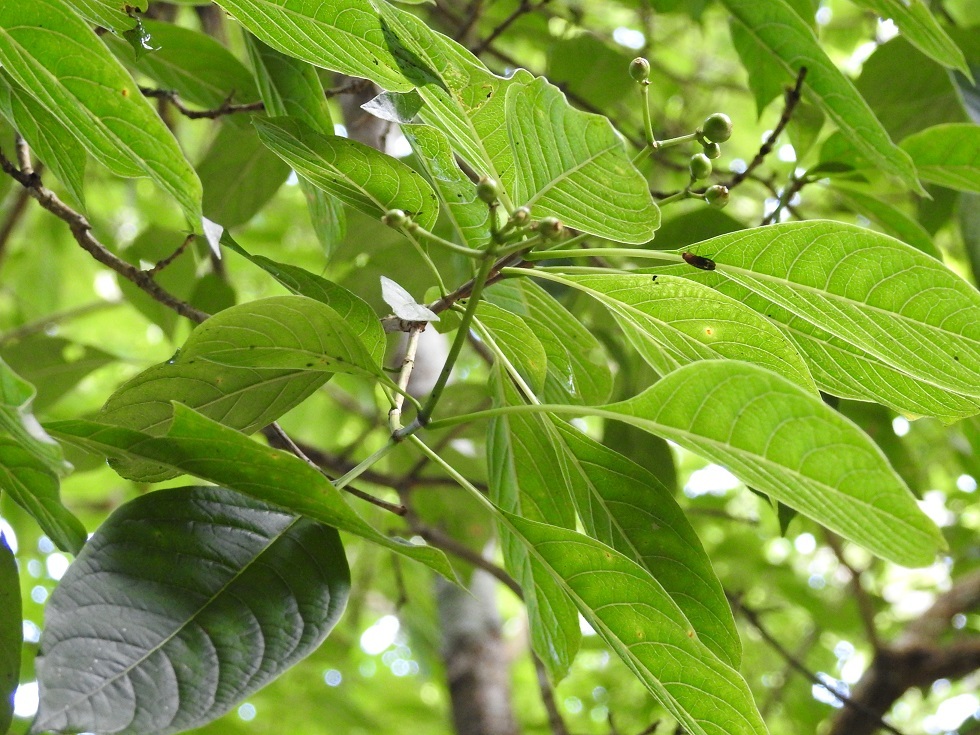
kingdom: Plantae
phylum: Tracheophyta
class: Magnoliopsida
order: Gentianales
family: Rubiaceae
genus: Palicourea
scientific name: Palicourea pubescens
